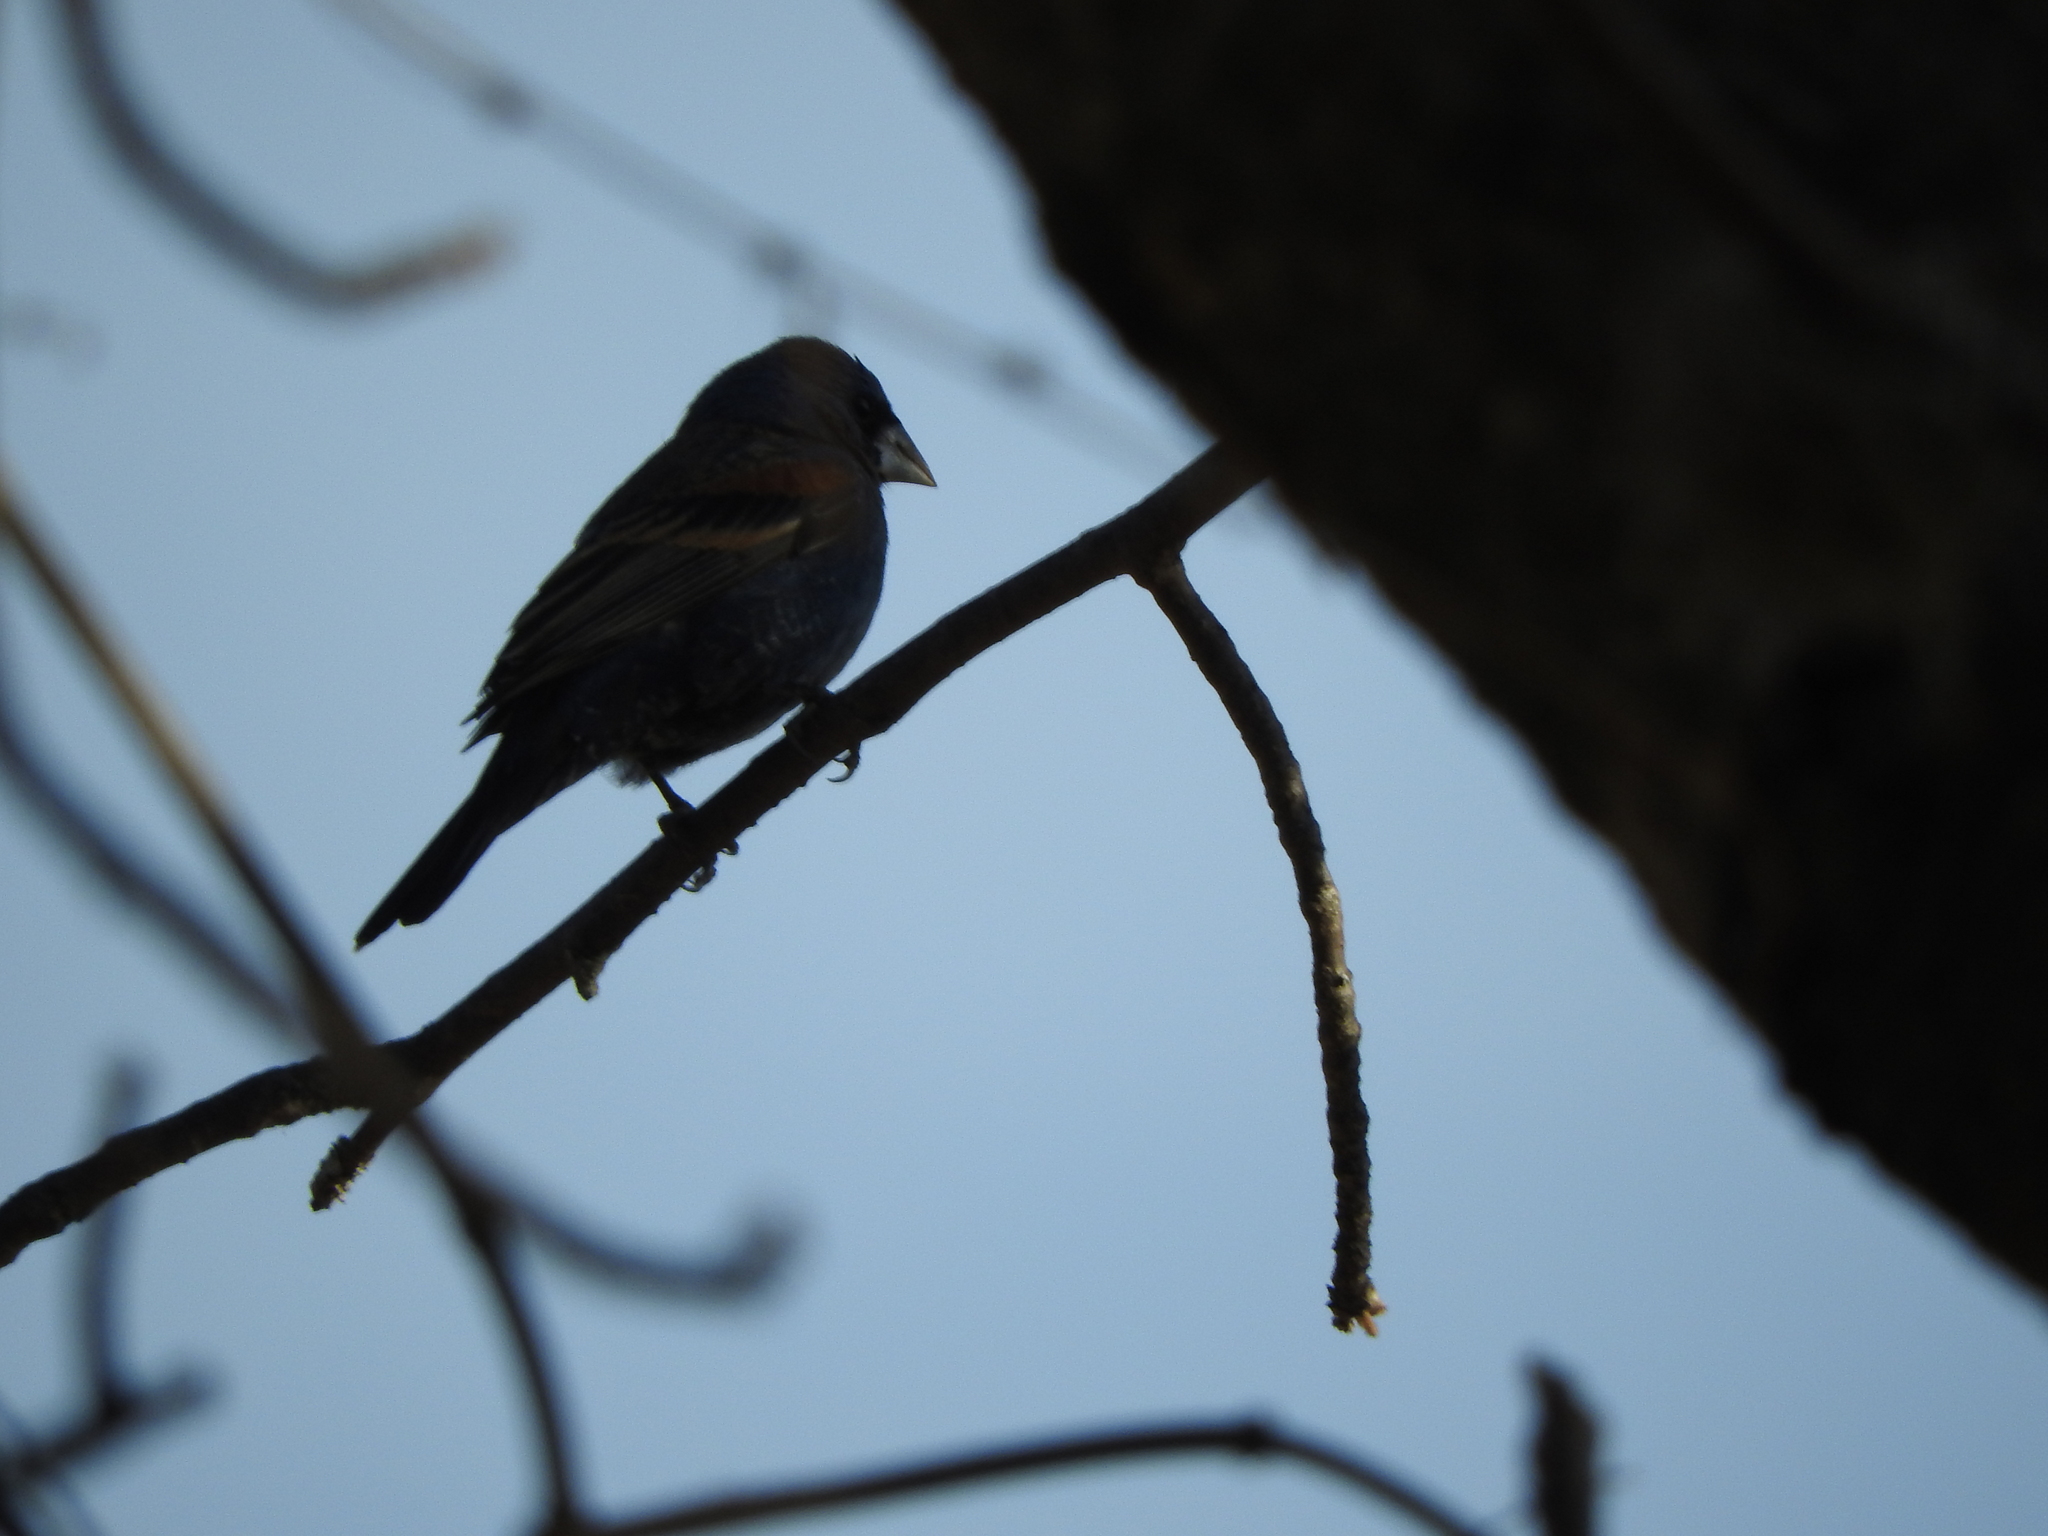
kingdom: Animalia
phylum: Chordata
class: Aves
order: Passeriformes
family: Cardinalidae
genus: Passerina
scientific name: Passerina caerulea
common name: Blue grosbeak
